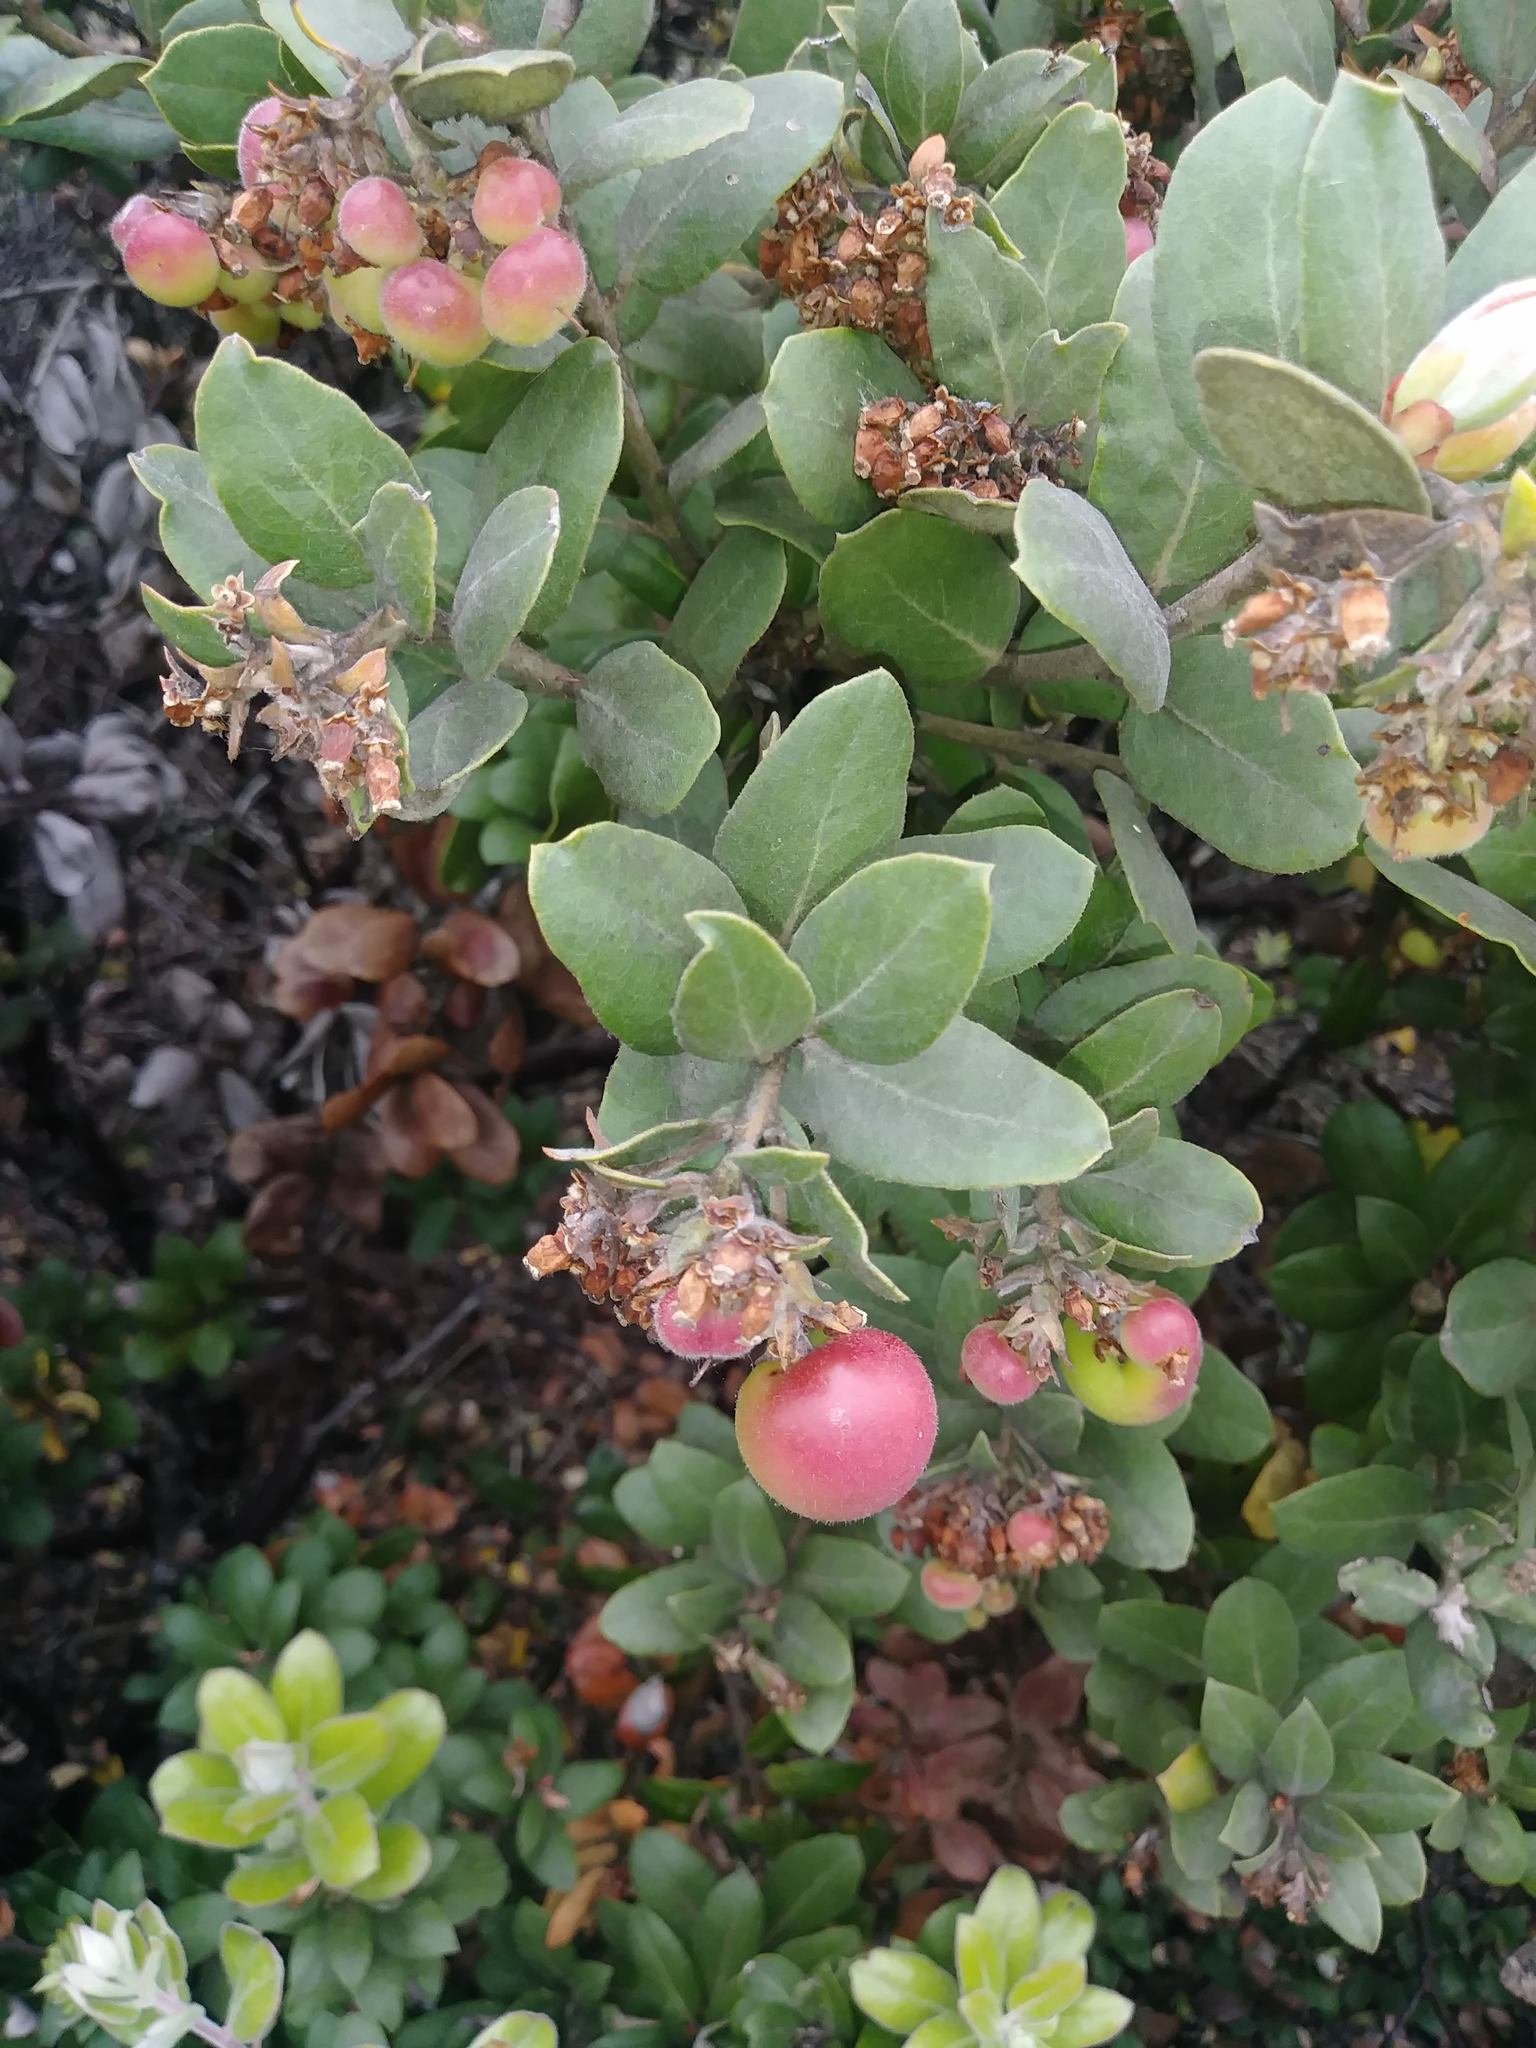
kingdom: Plantae
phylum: Tracheophyta
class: Magnoliopsida
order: Ericales
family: Ericaceae
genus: Arctostaphylos
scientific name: Arctostaphylos tomentosa
